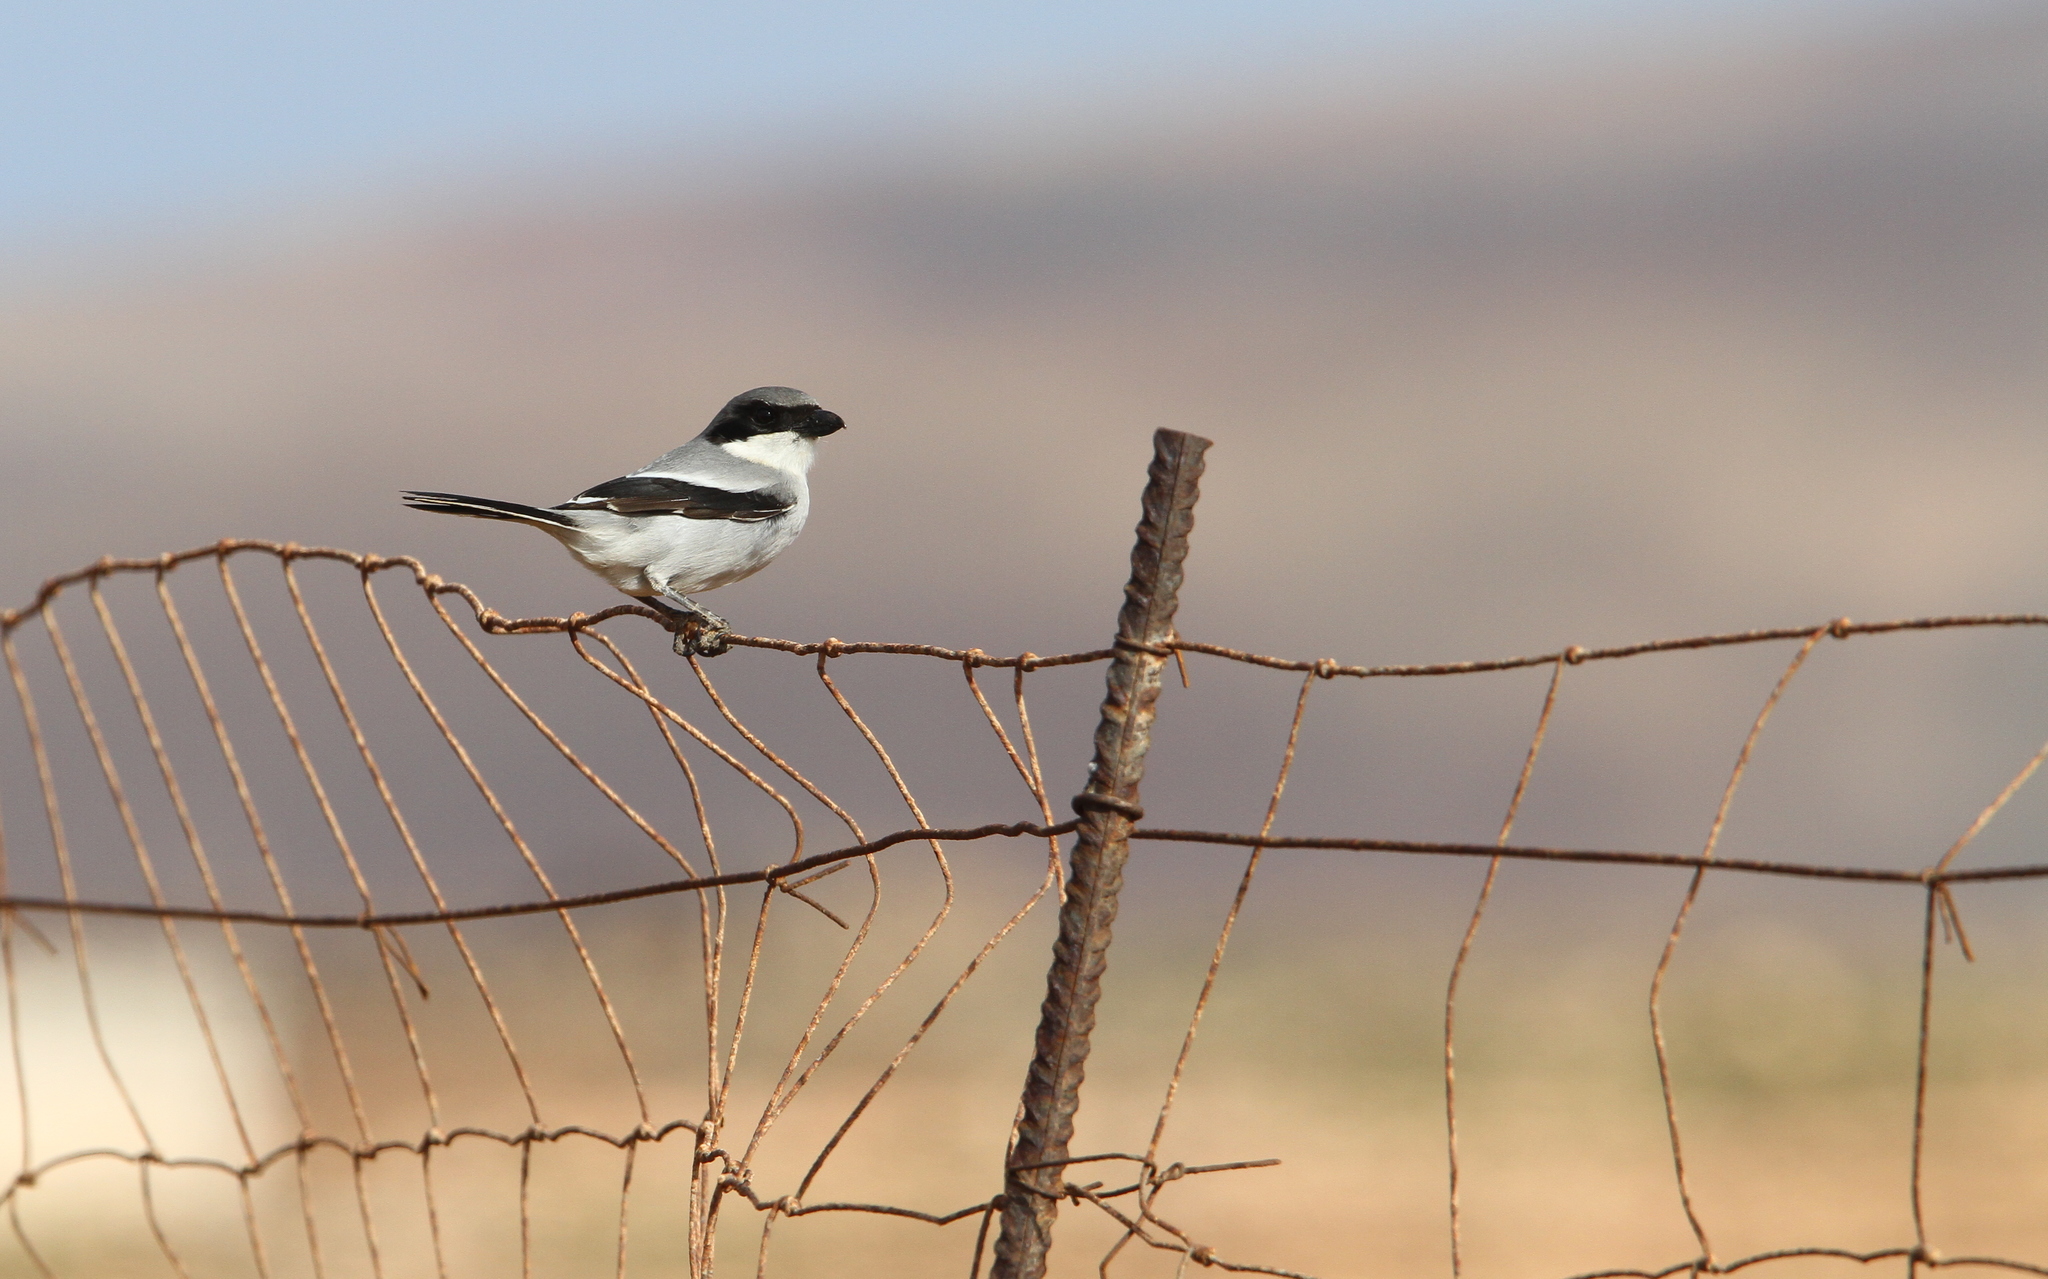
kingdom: Animalia
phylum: Chordata
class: Aves
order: Passeriformes
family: Laniidae
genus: Lanius
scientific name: Lanius excubitor
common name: Great grey shrike
